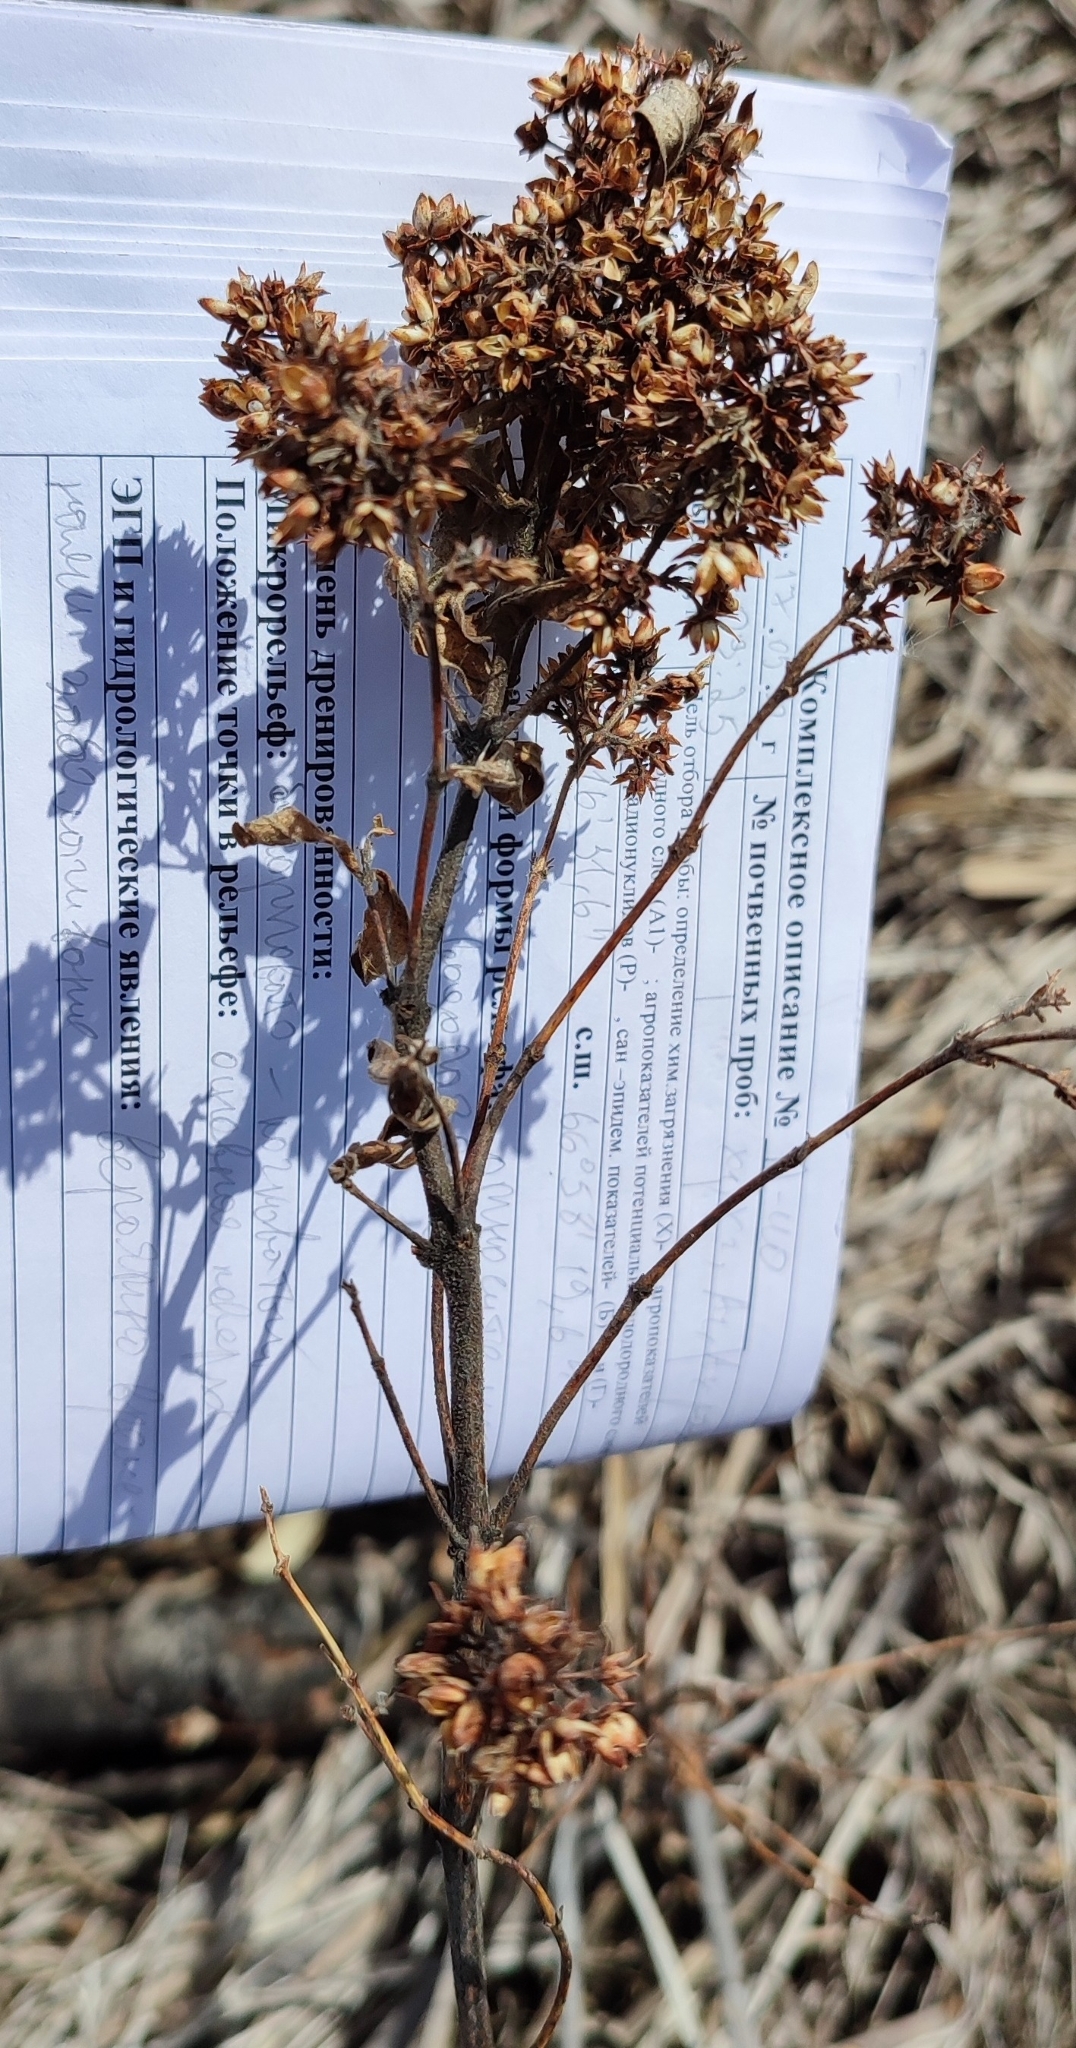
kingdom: Plantae
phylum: Tracheophyta
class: Magnoliopsida
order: Ericales
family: Primulaceae
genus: Lysimachia
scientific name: Lysimachia vulgaris
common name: Yellow loosestrife
